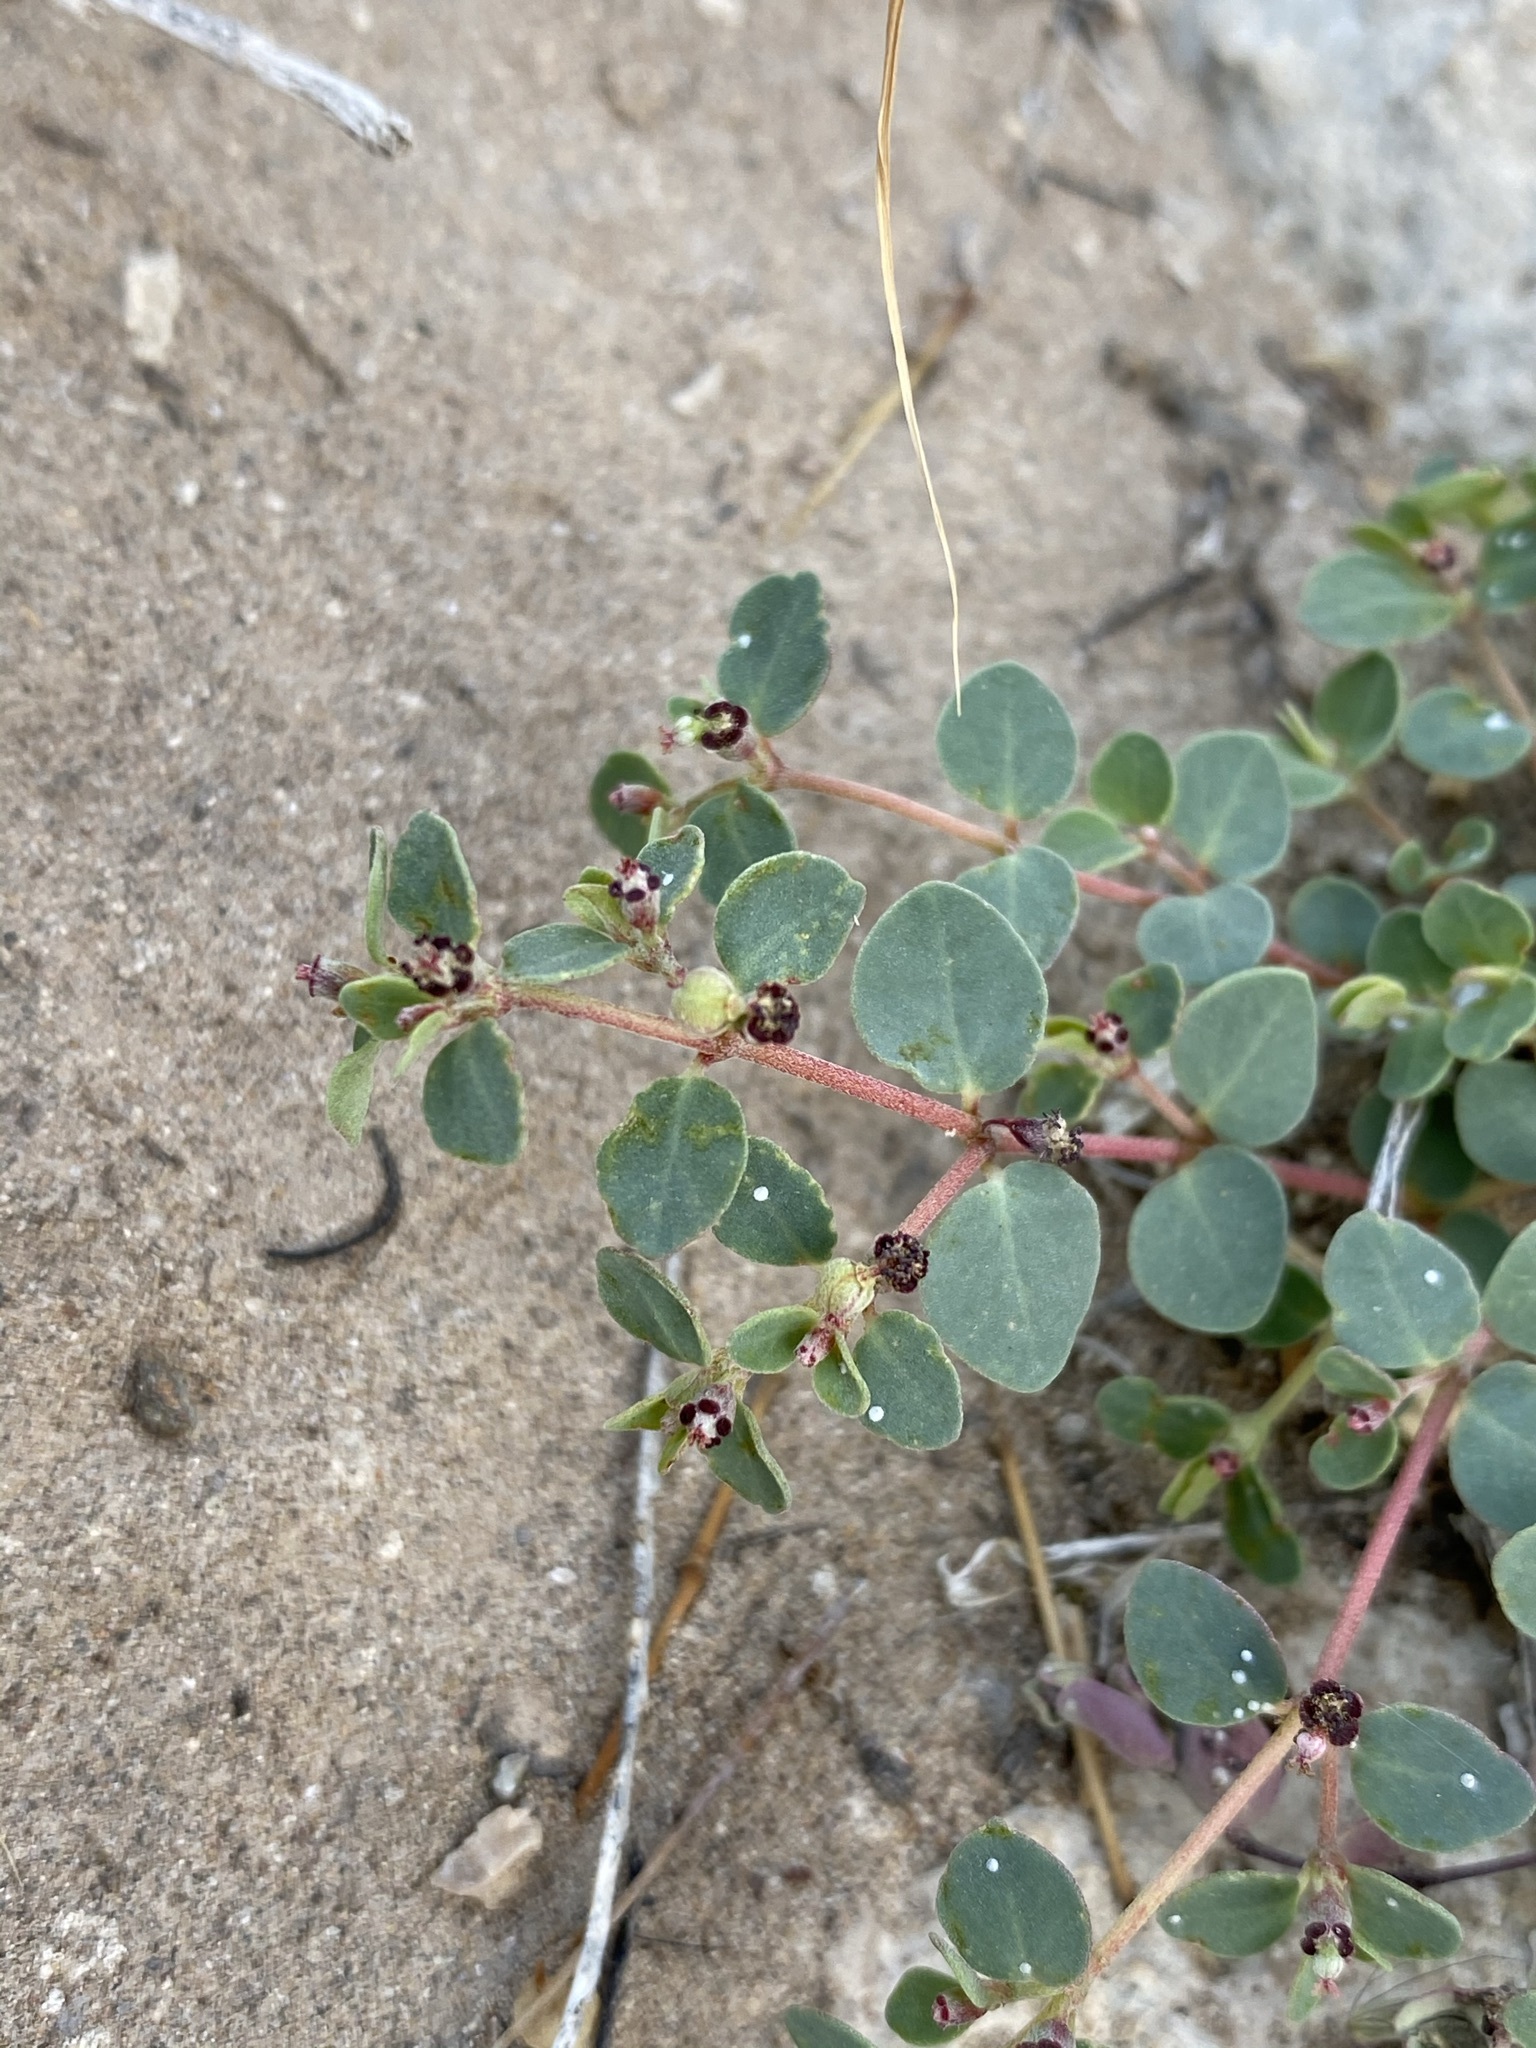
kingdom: Plantae
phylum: Tracheophyta
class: Magnoliopsida
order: Malpighiales
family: Euphorbiaceae
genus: Euphorbia
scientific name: Euphorbia cinerascens
